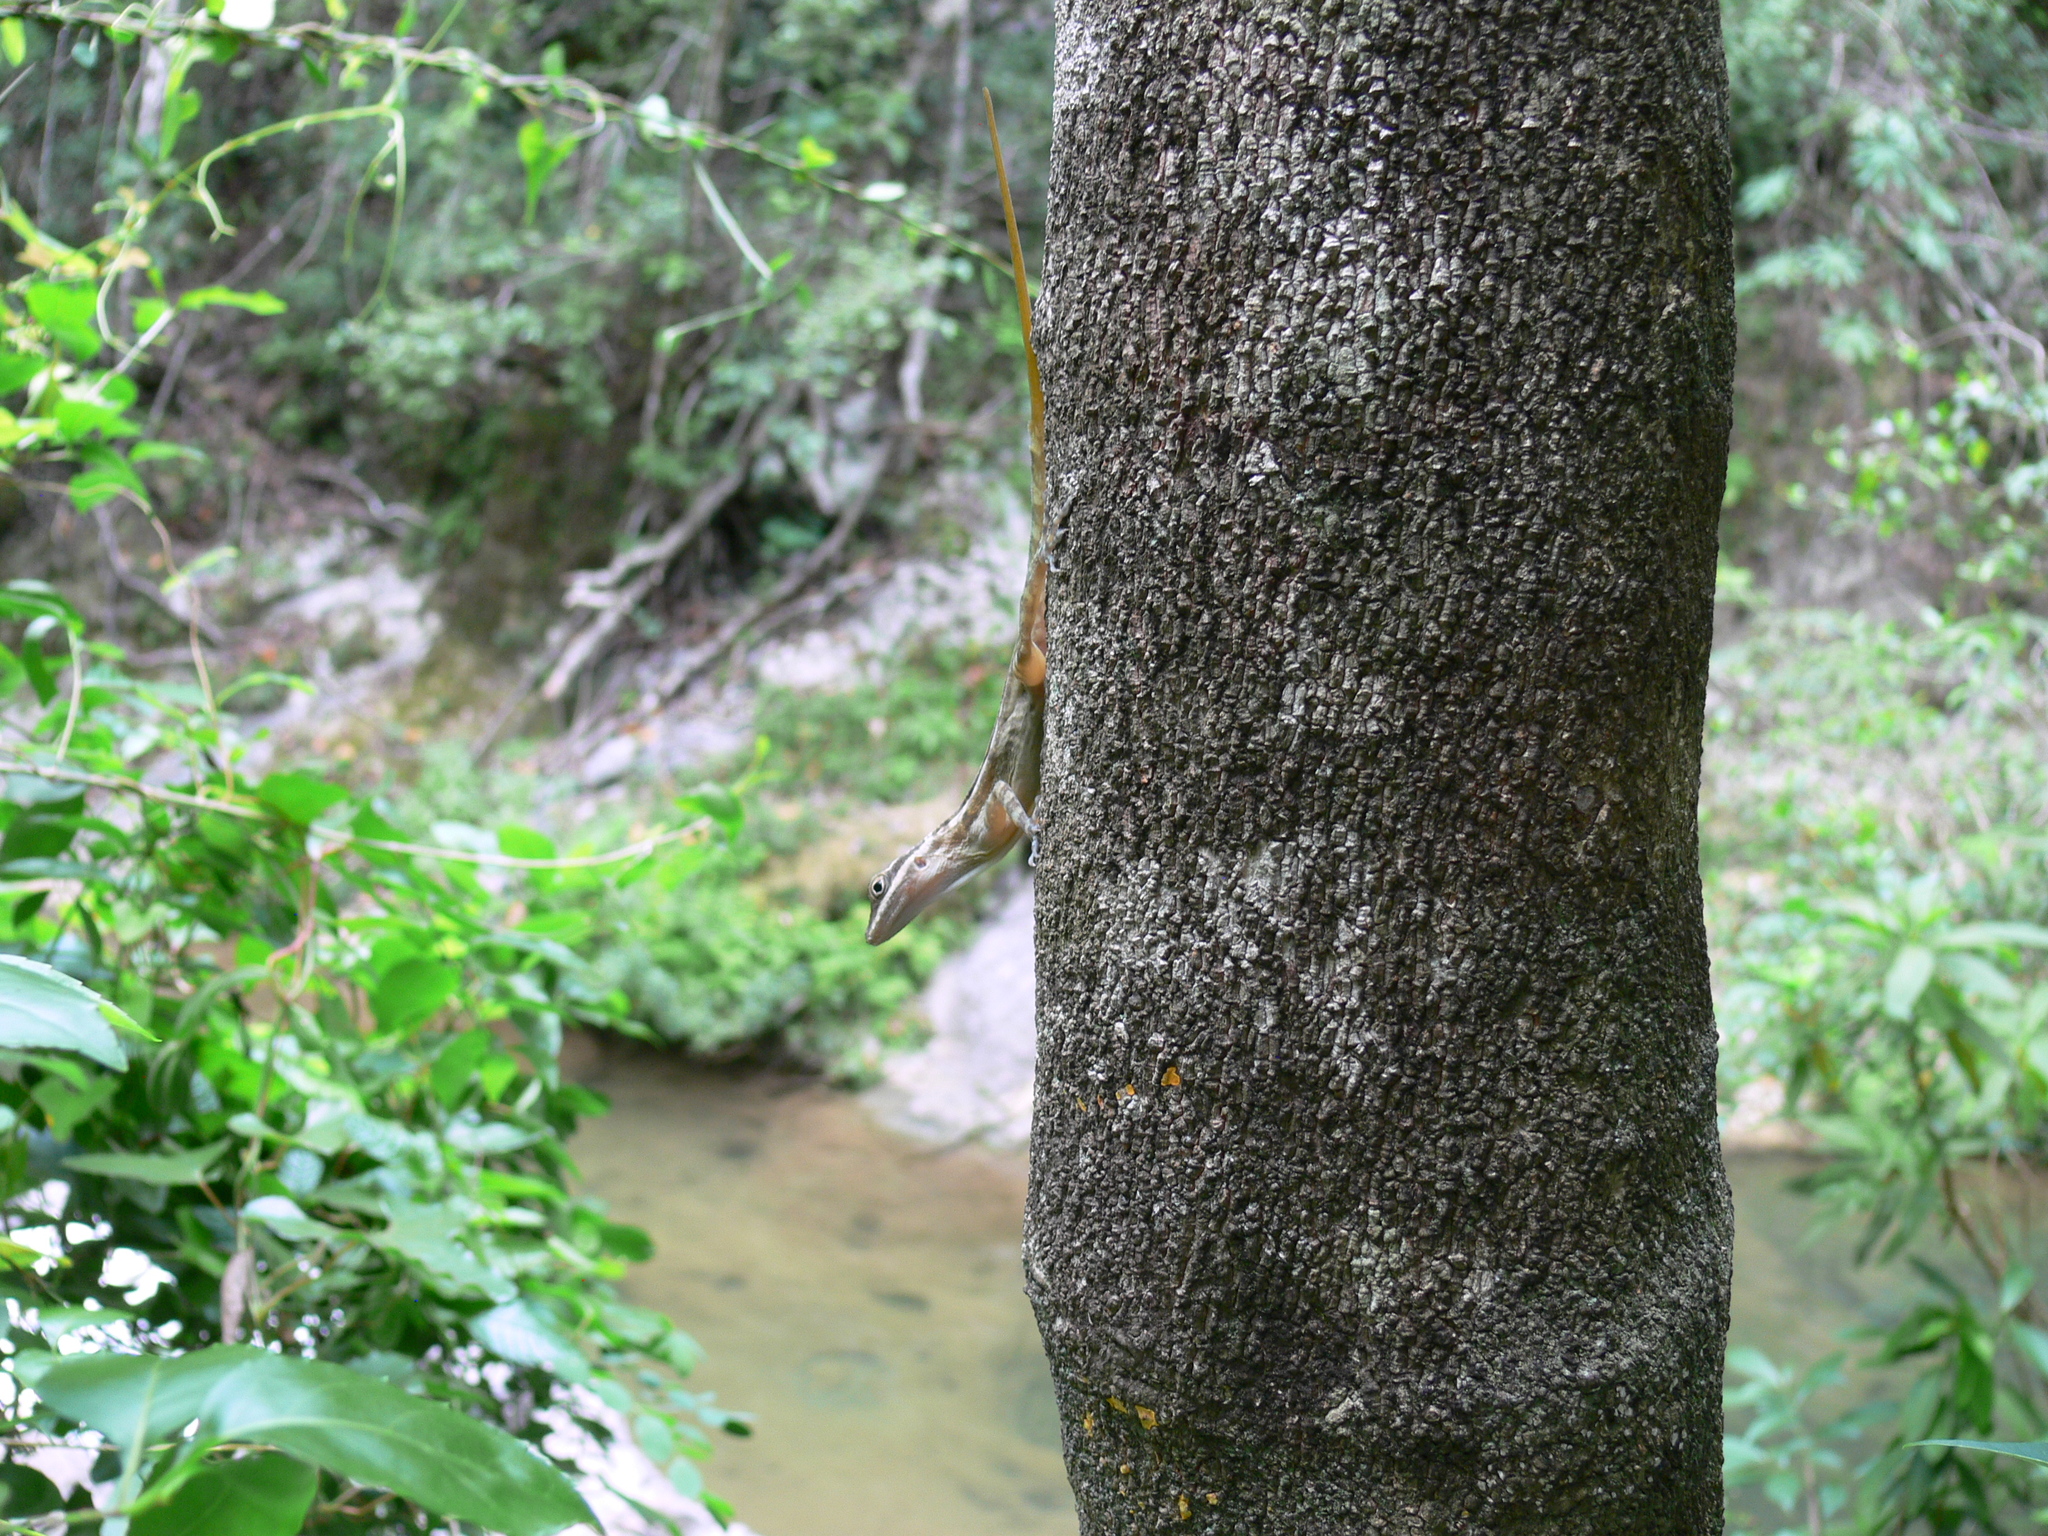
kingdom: Animalia
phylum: Chordata
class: Squamata
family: Dactyloidae
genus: Anolis
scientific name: Anolis lucius
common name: Cave anole
